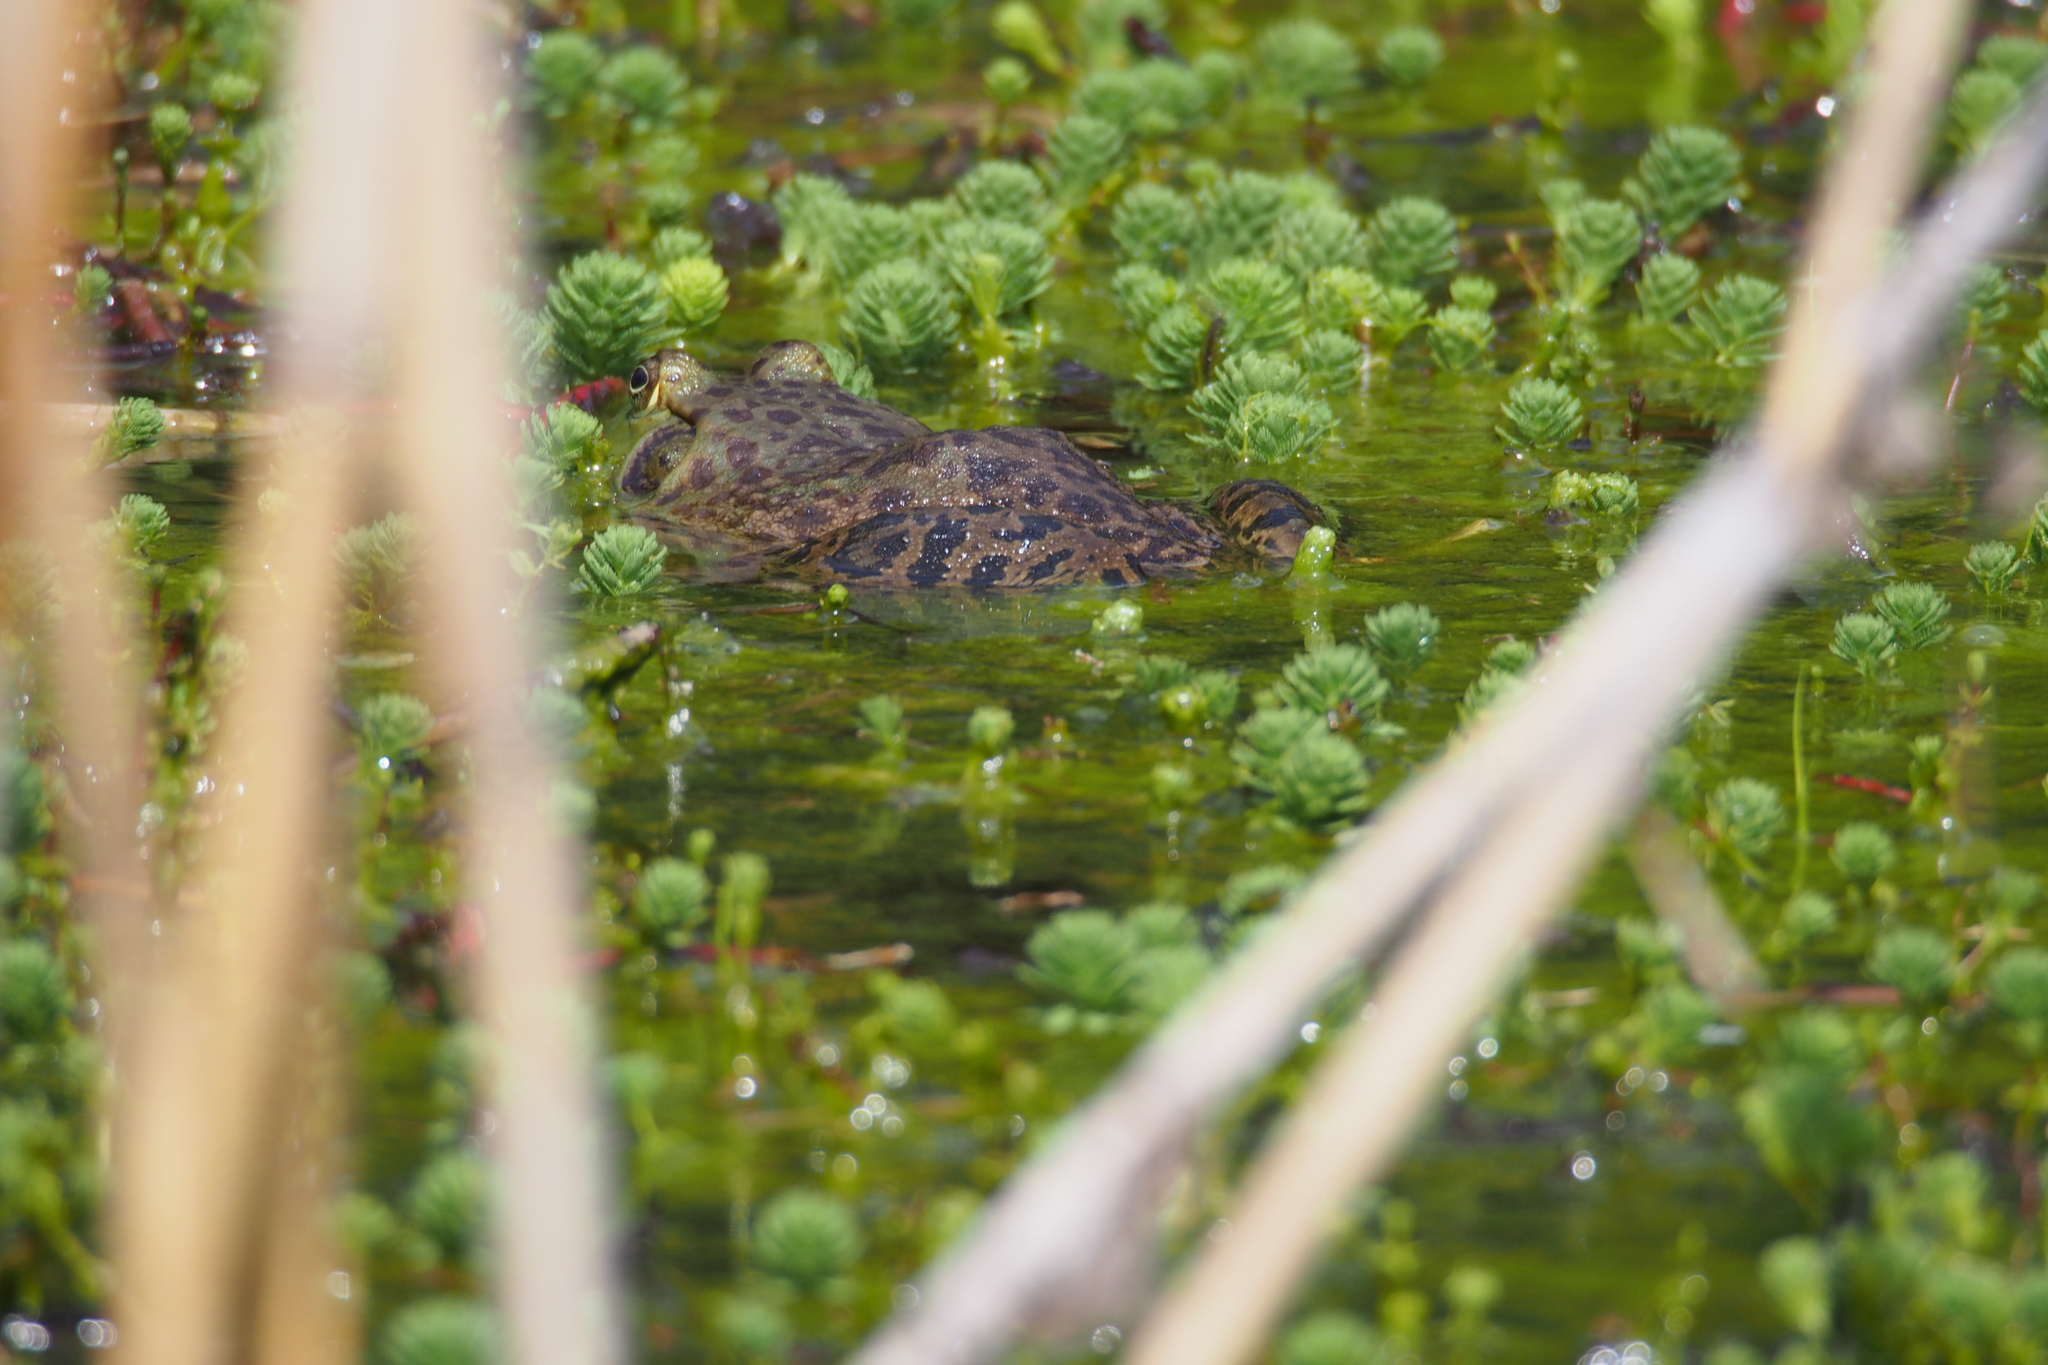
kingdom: Animalia
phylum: Chordata
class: Amphibia
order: Anura
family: Ranidae
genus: Lithobates
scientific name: Lithobates catesbeianus
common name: American bullfrog
